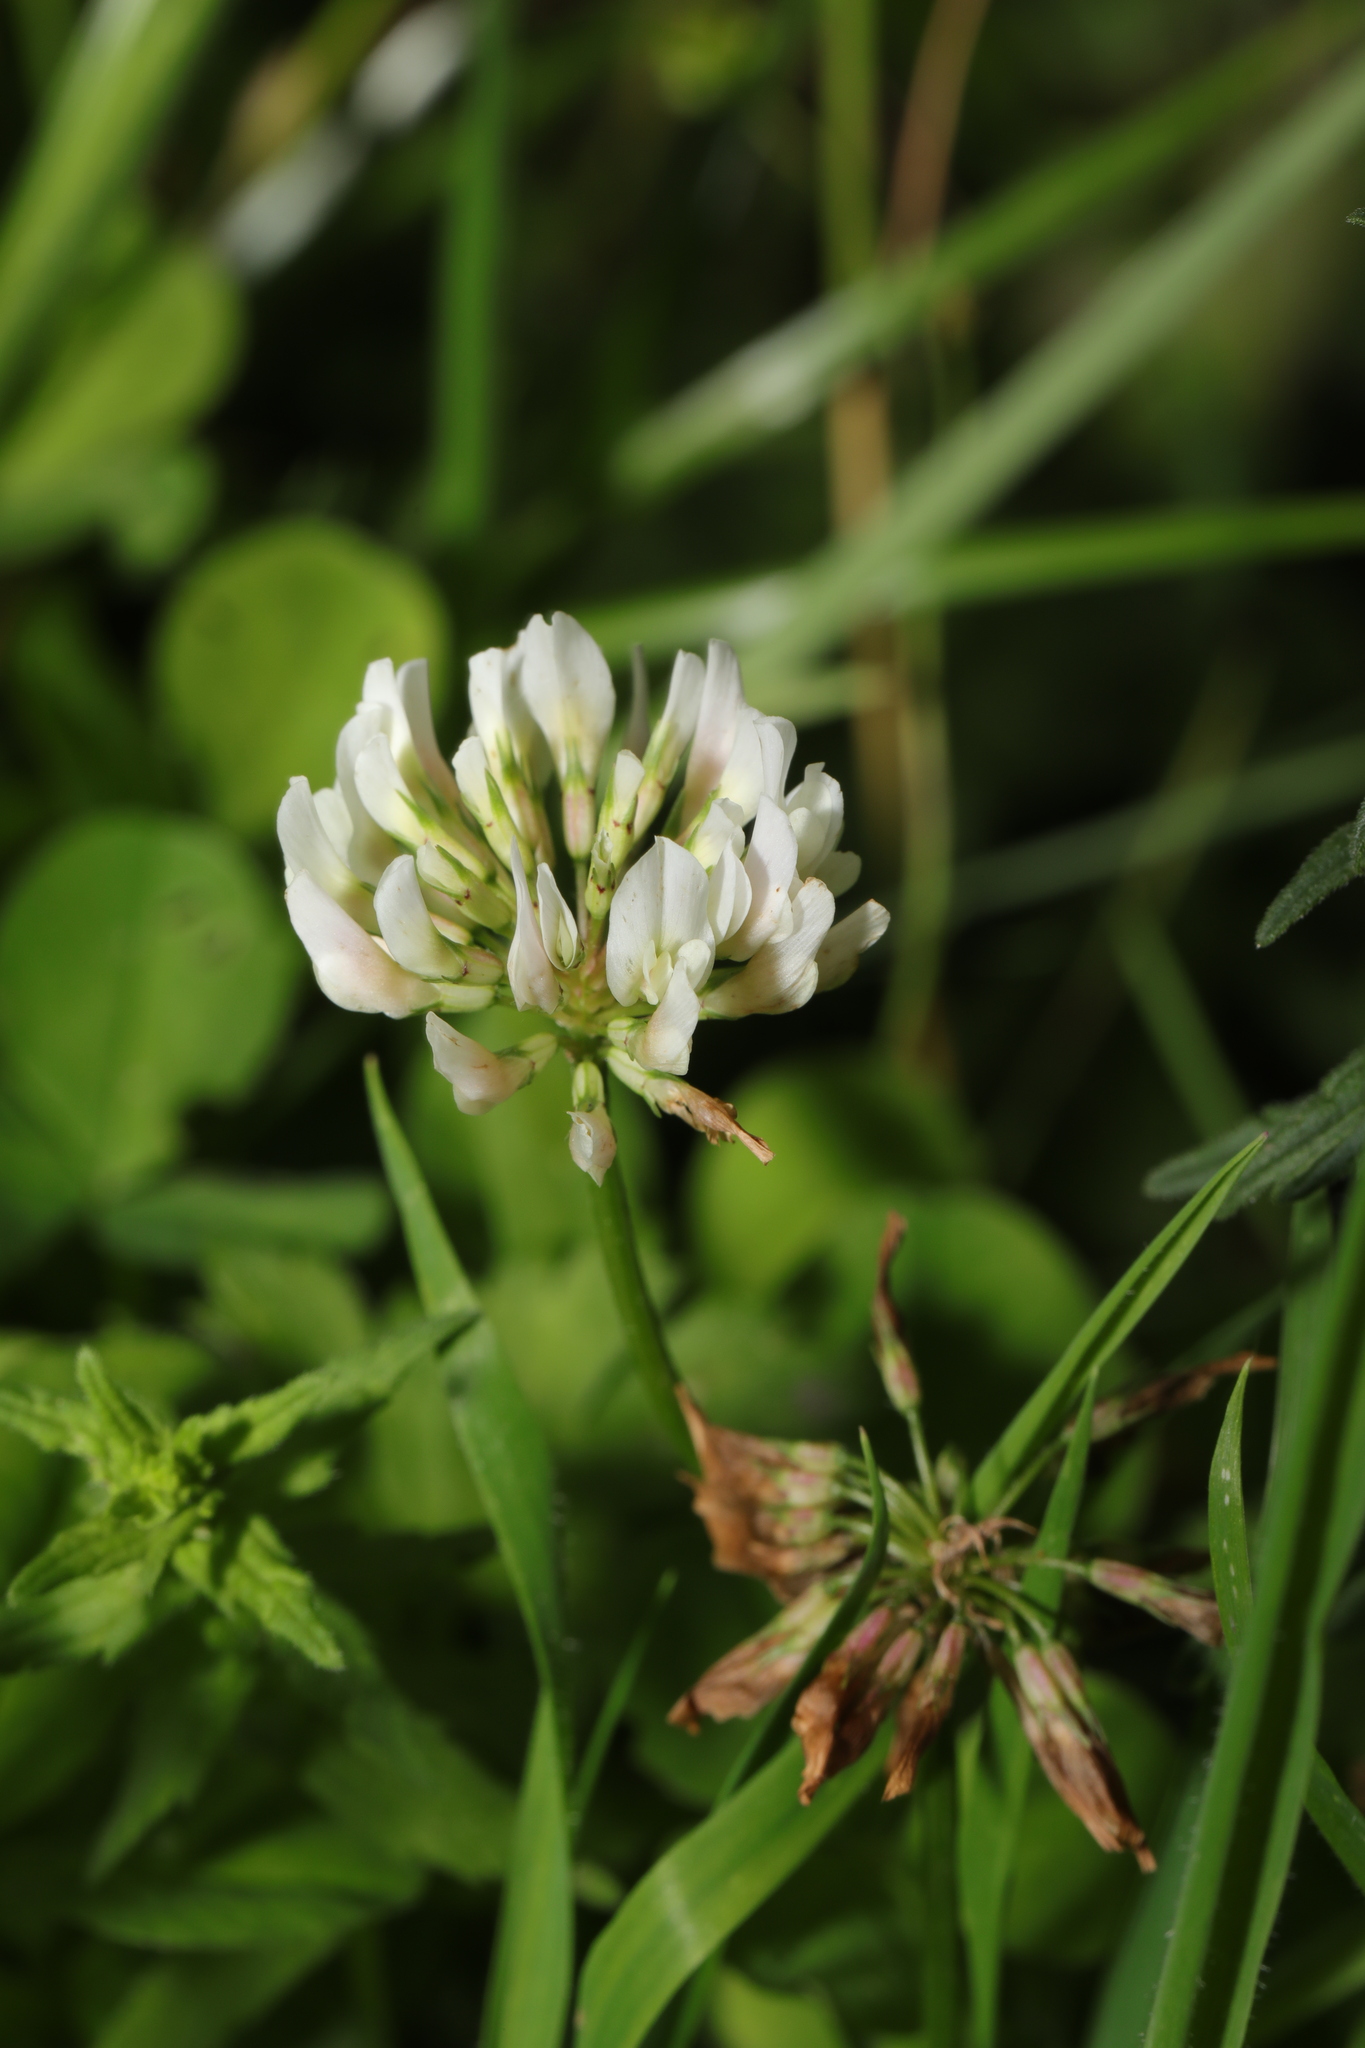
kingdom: Plantae
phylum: Tracheophyta
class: Magnoliopsida
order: Fabales
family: Fabaceae
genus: Trifolium
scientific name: Trifolium repens
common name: White clover
